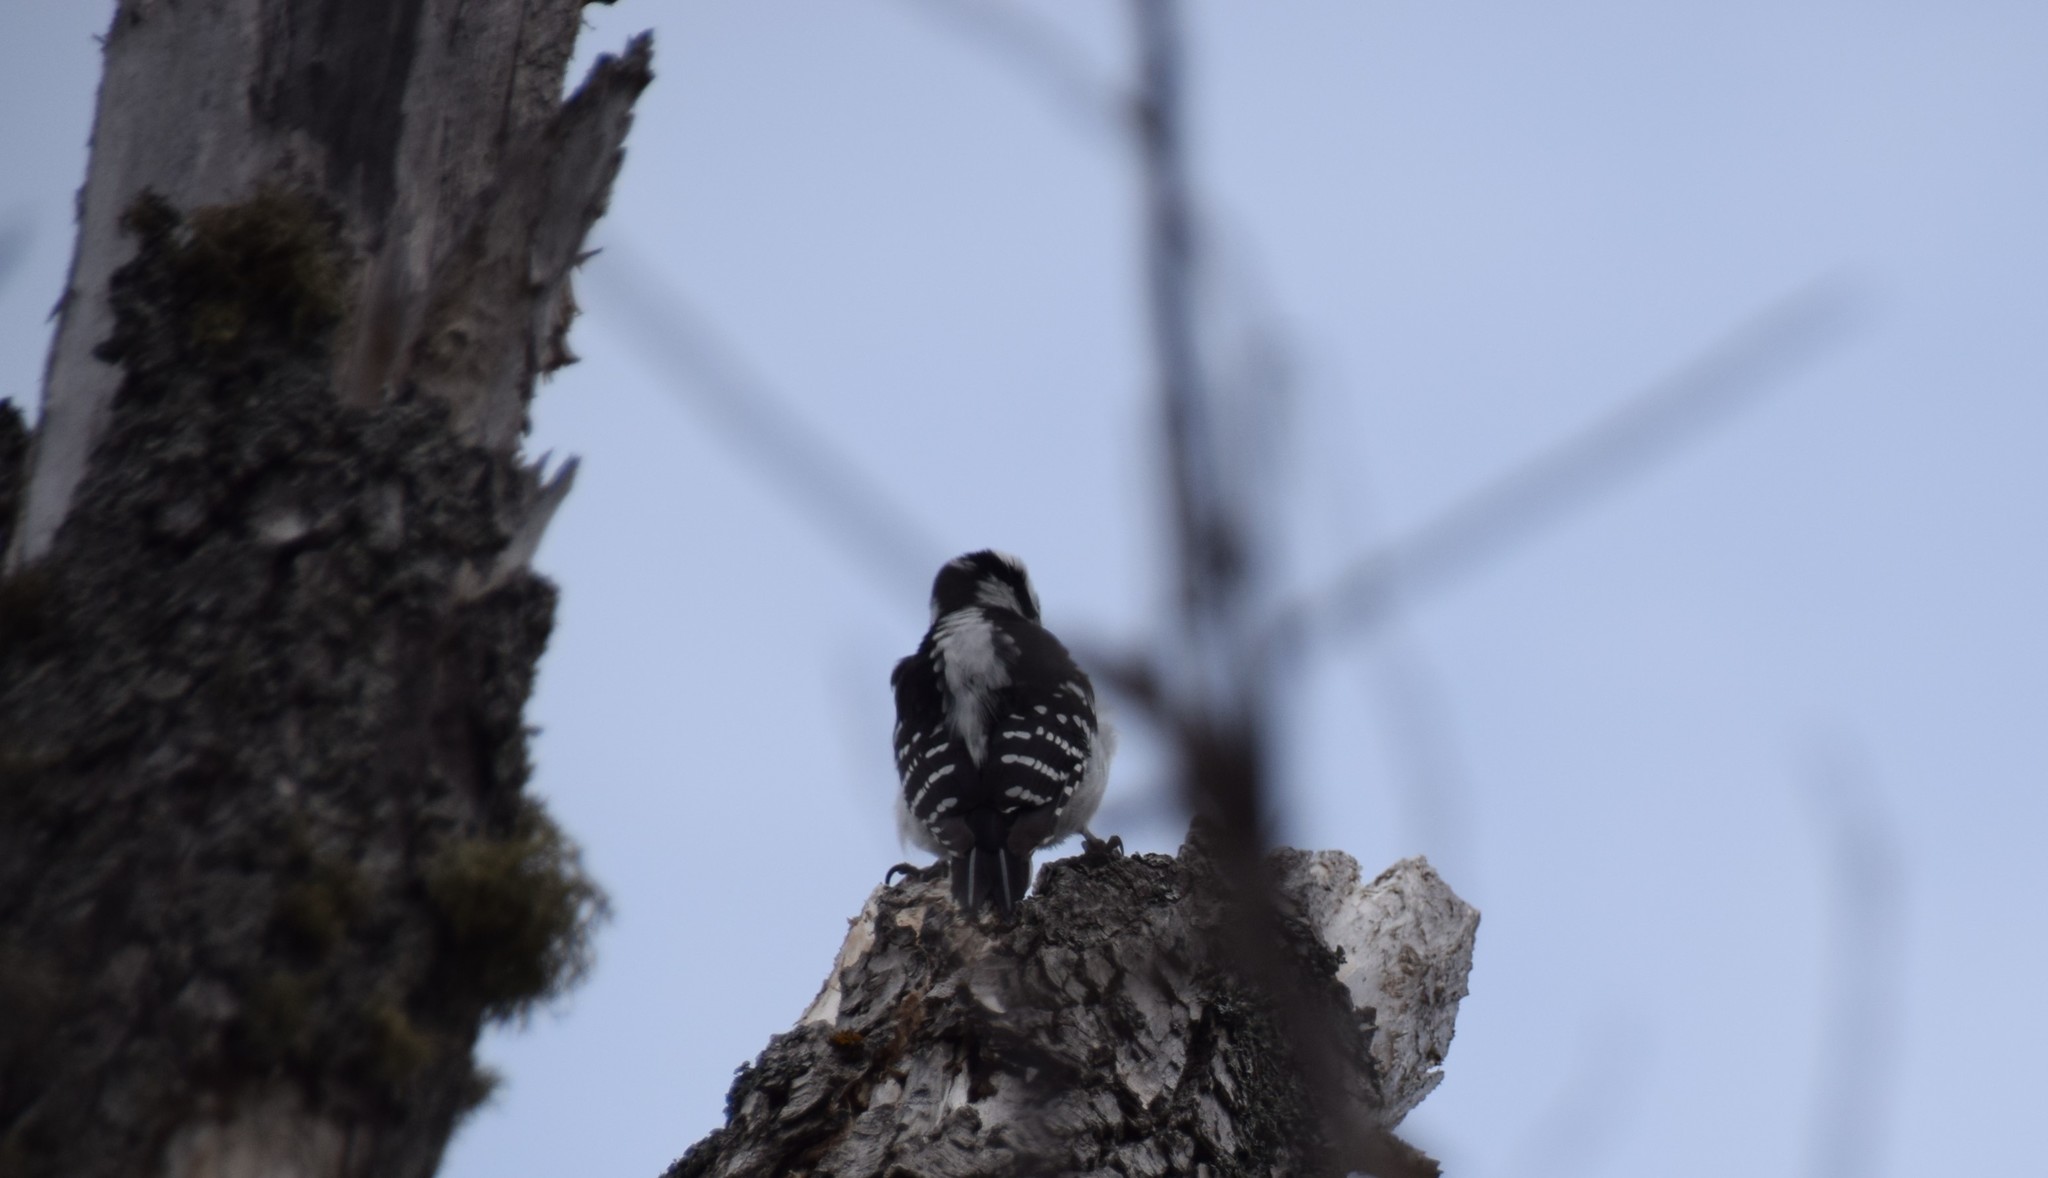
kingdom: Animalia
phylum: Chordata
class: Aves
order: Piciformes
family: Picidae
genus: Leuconotopicus
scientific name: Leuconotopicus villosus
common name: Hairy woodpecker
